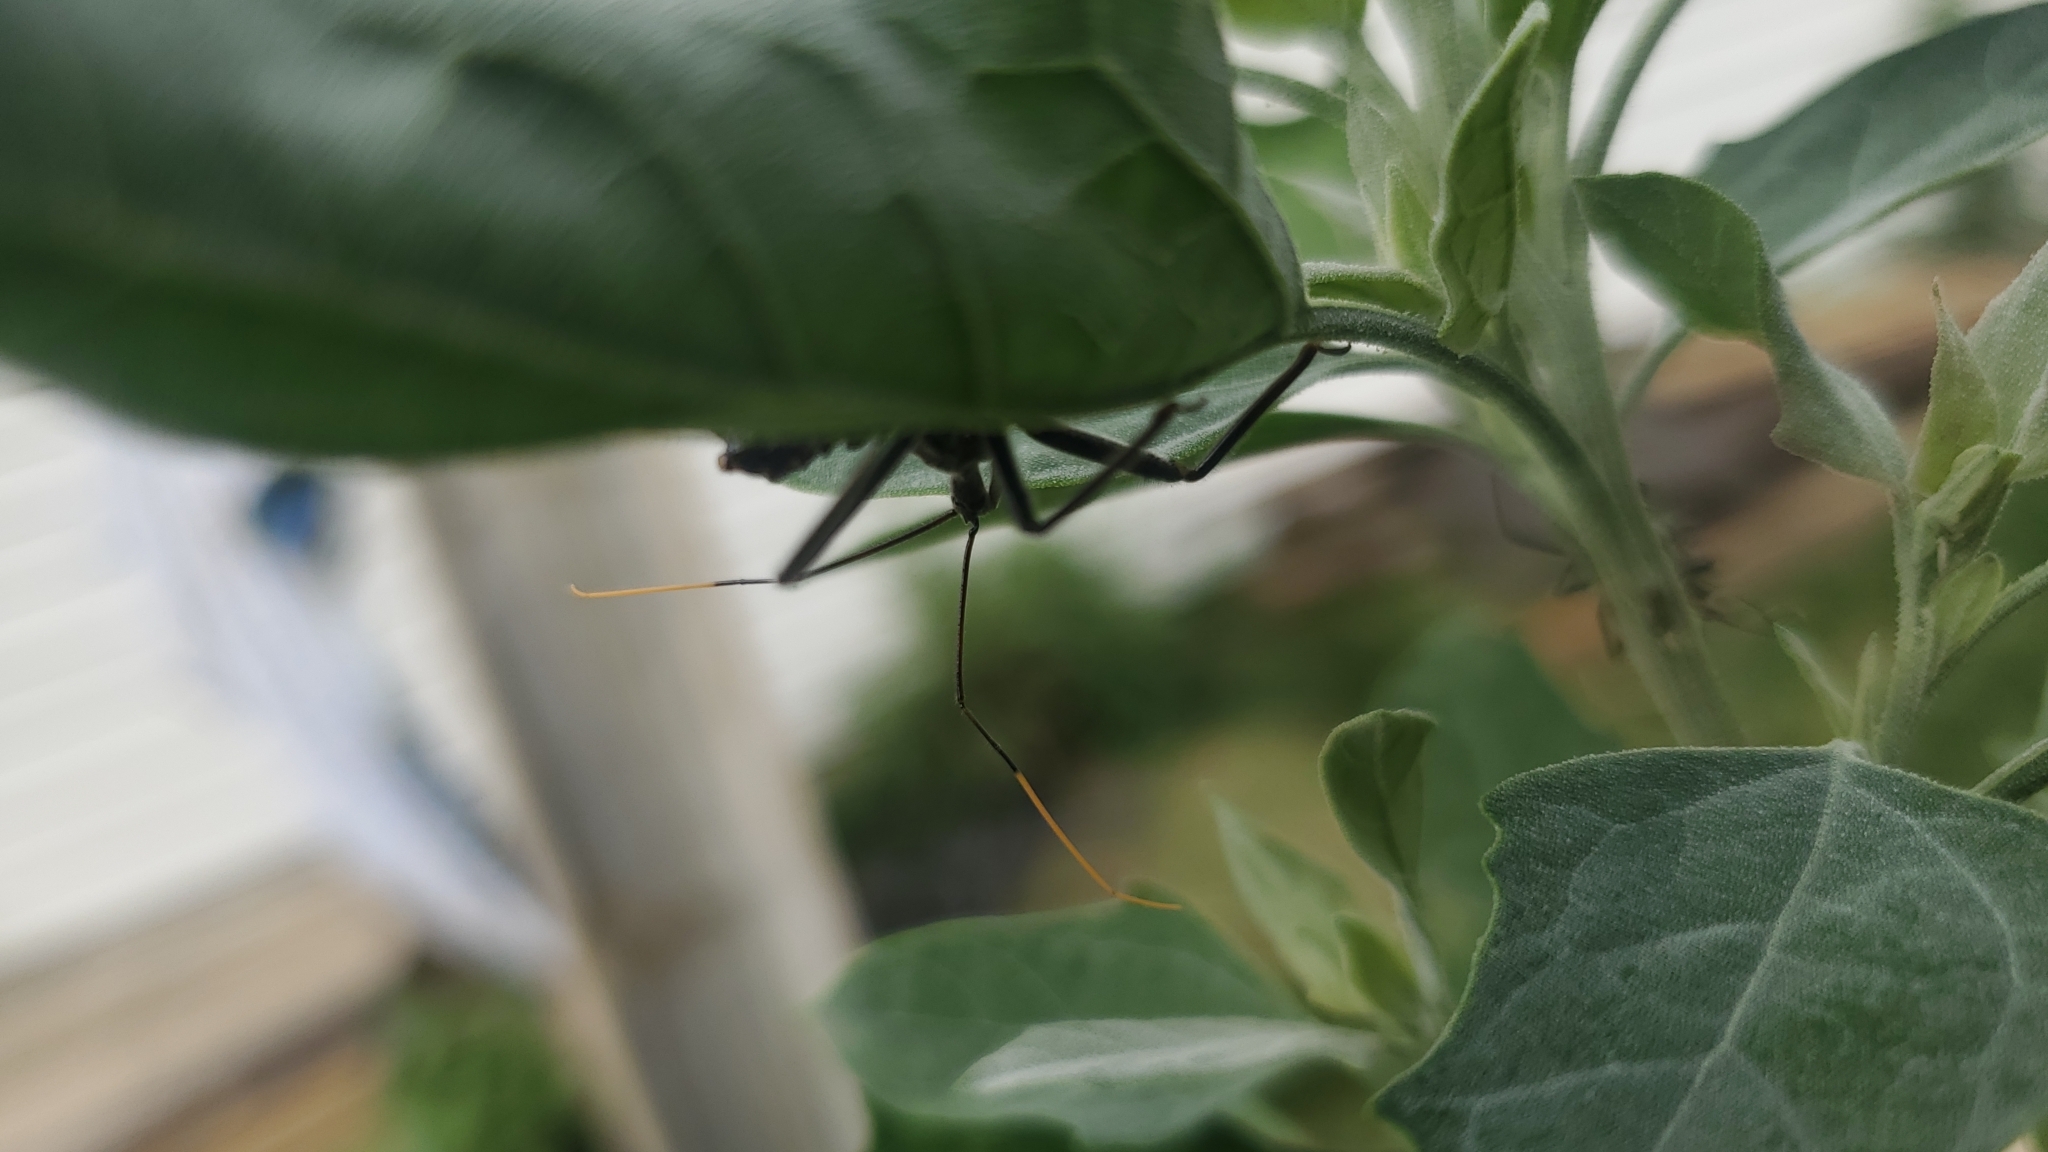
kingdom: Animalia
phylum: Arthropoda
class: Insecta
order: Hemiptera
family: Reduviidae
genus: Arilus
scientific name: Arilus cristatus
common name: North american wheel bug
